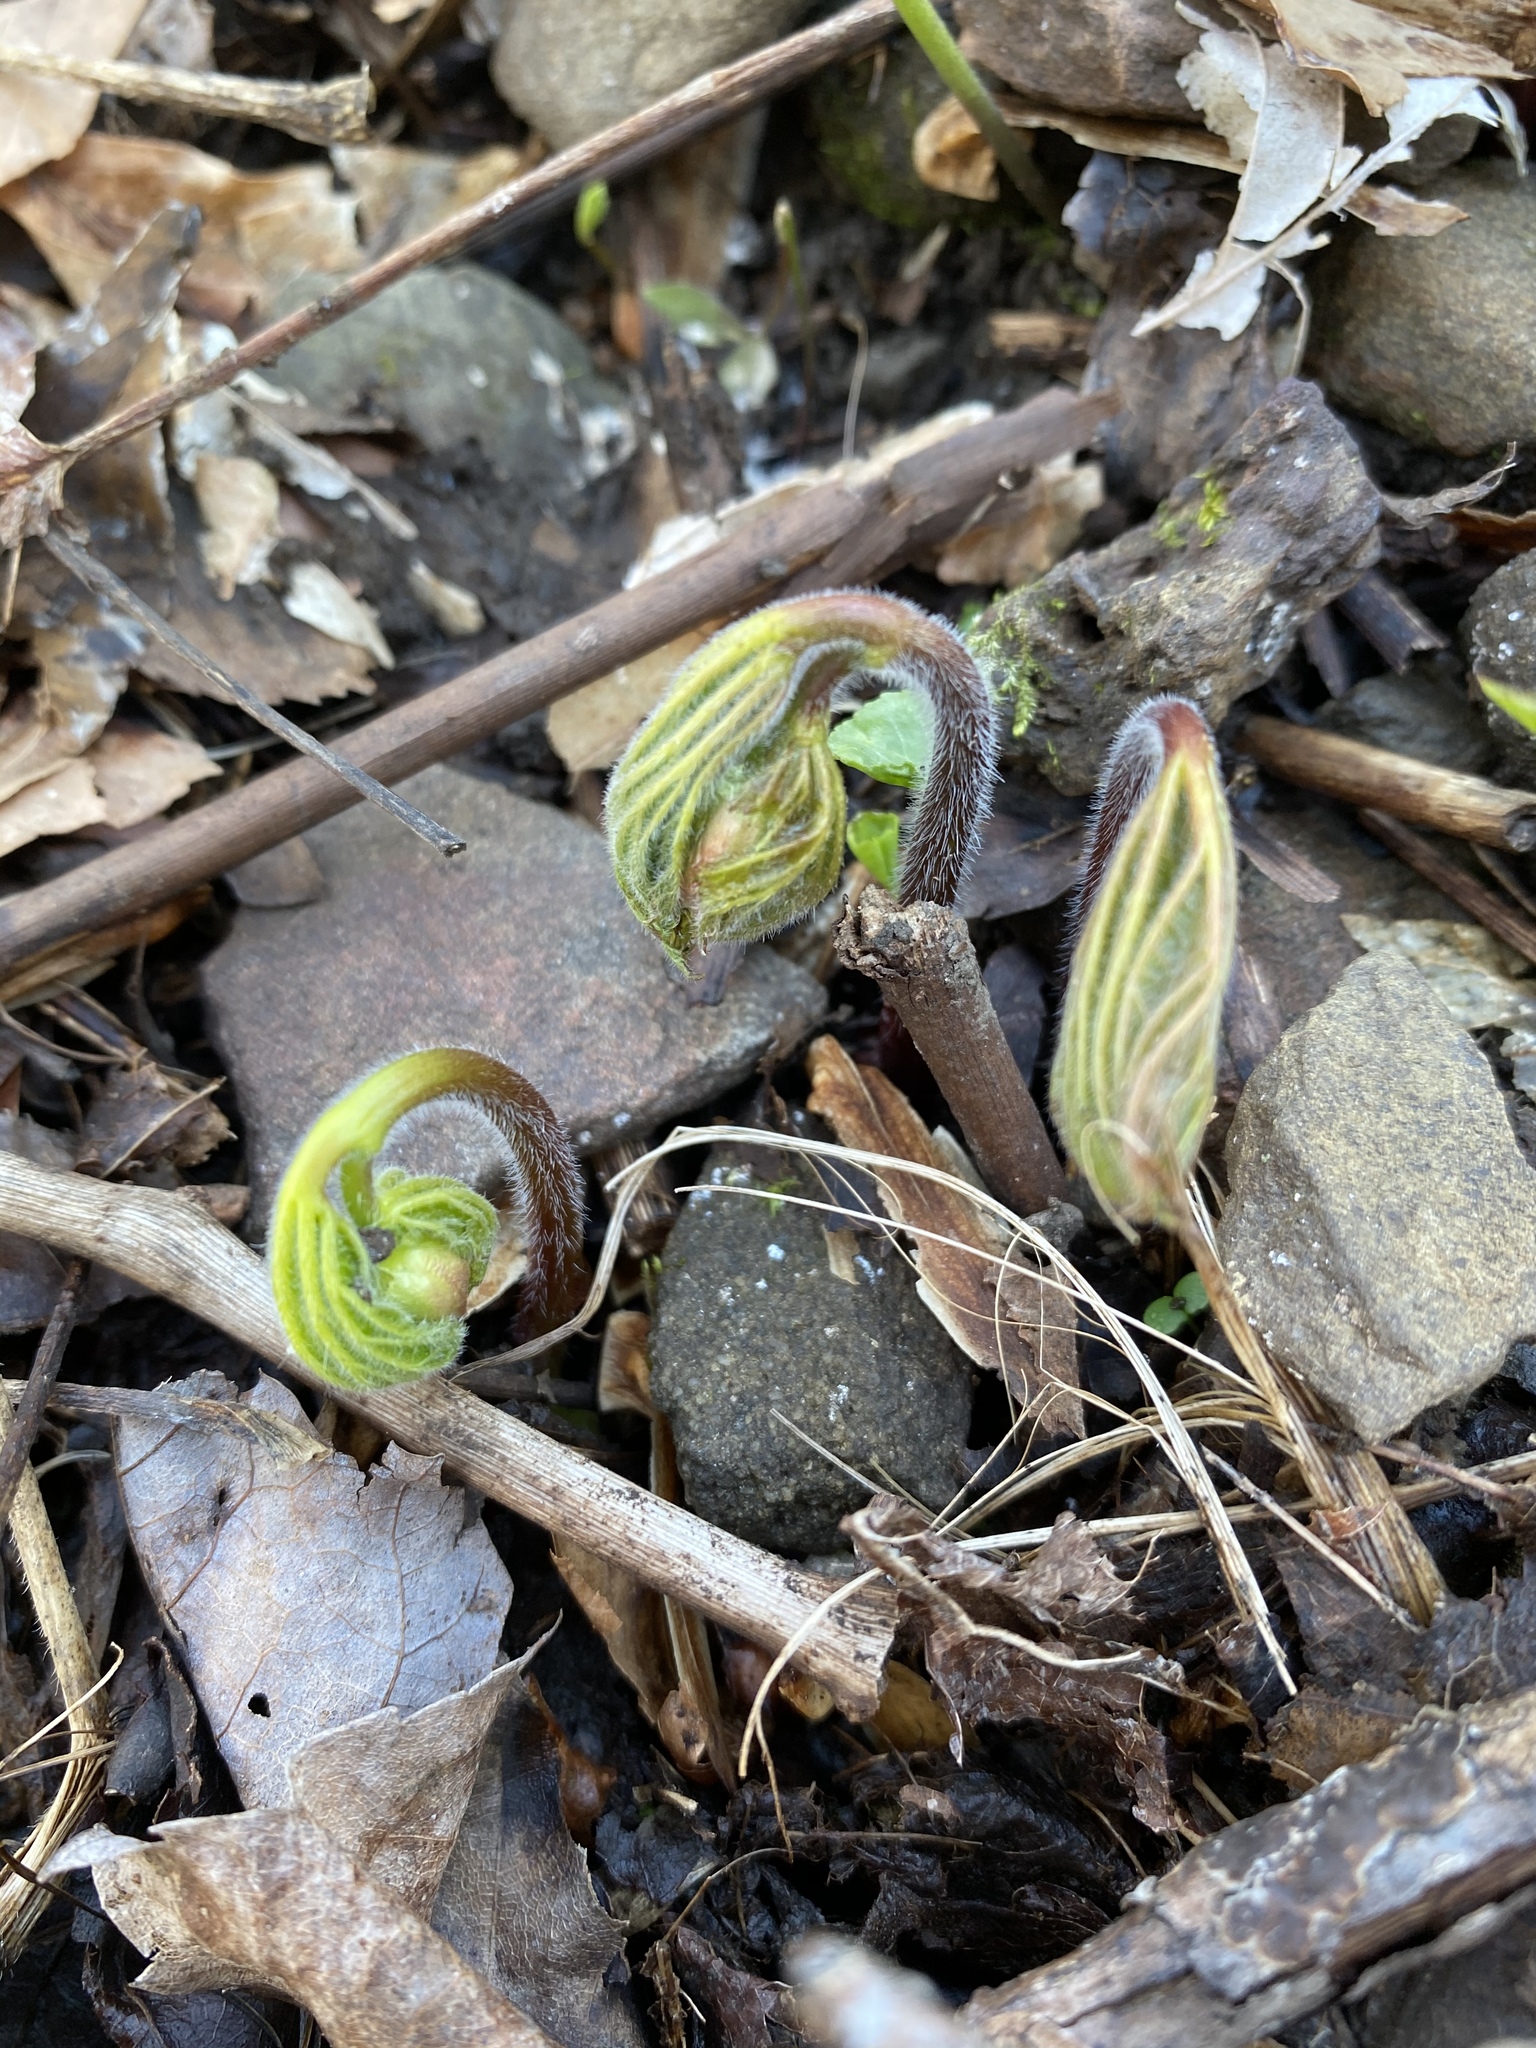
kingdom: Plantae
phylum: Tracheophyta
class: Magnoliopsida
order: Ranunculales
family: Ranunculaceae
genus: Hydrastis
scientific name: Hydrastis canadensis
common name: Goldenseal
